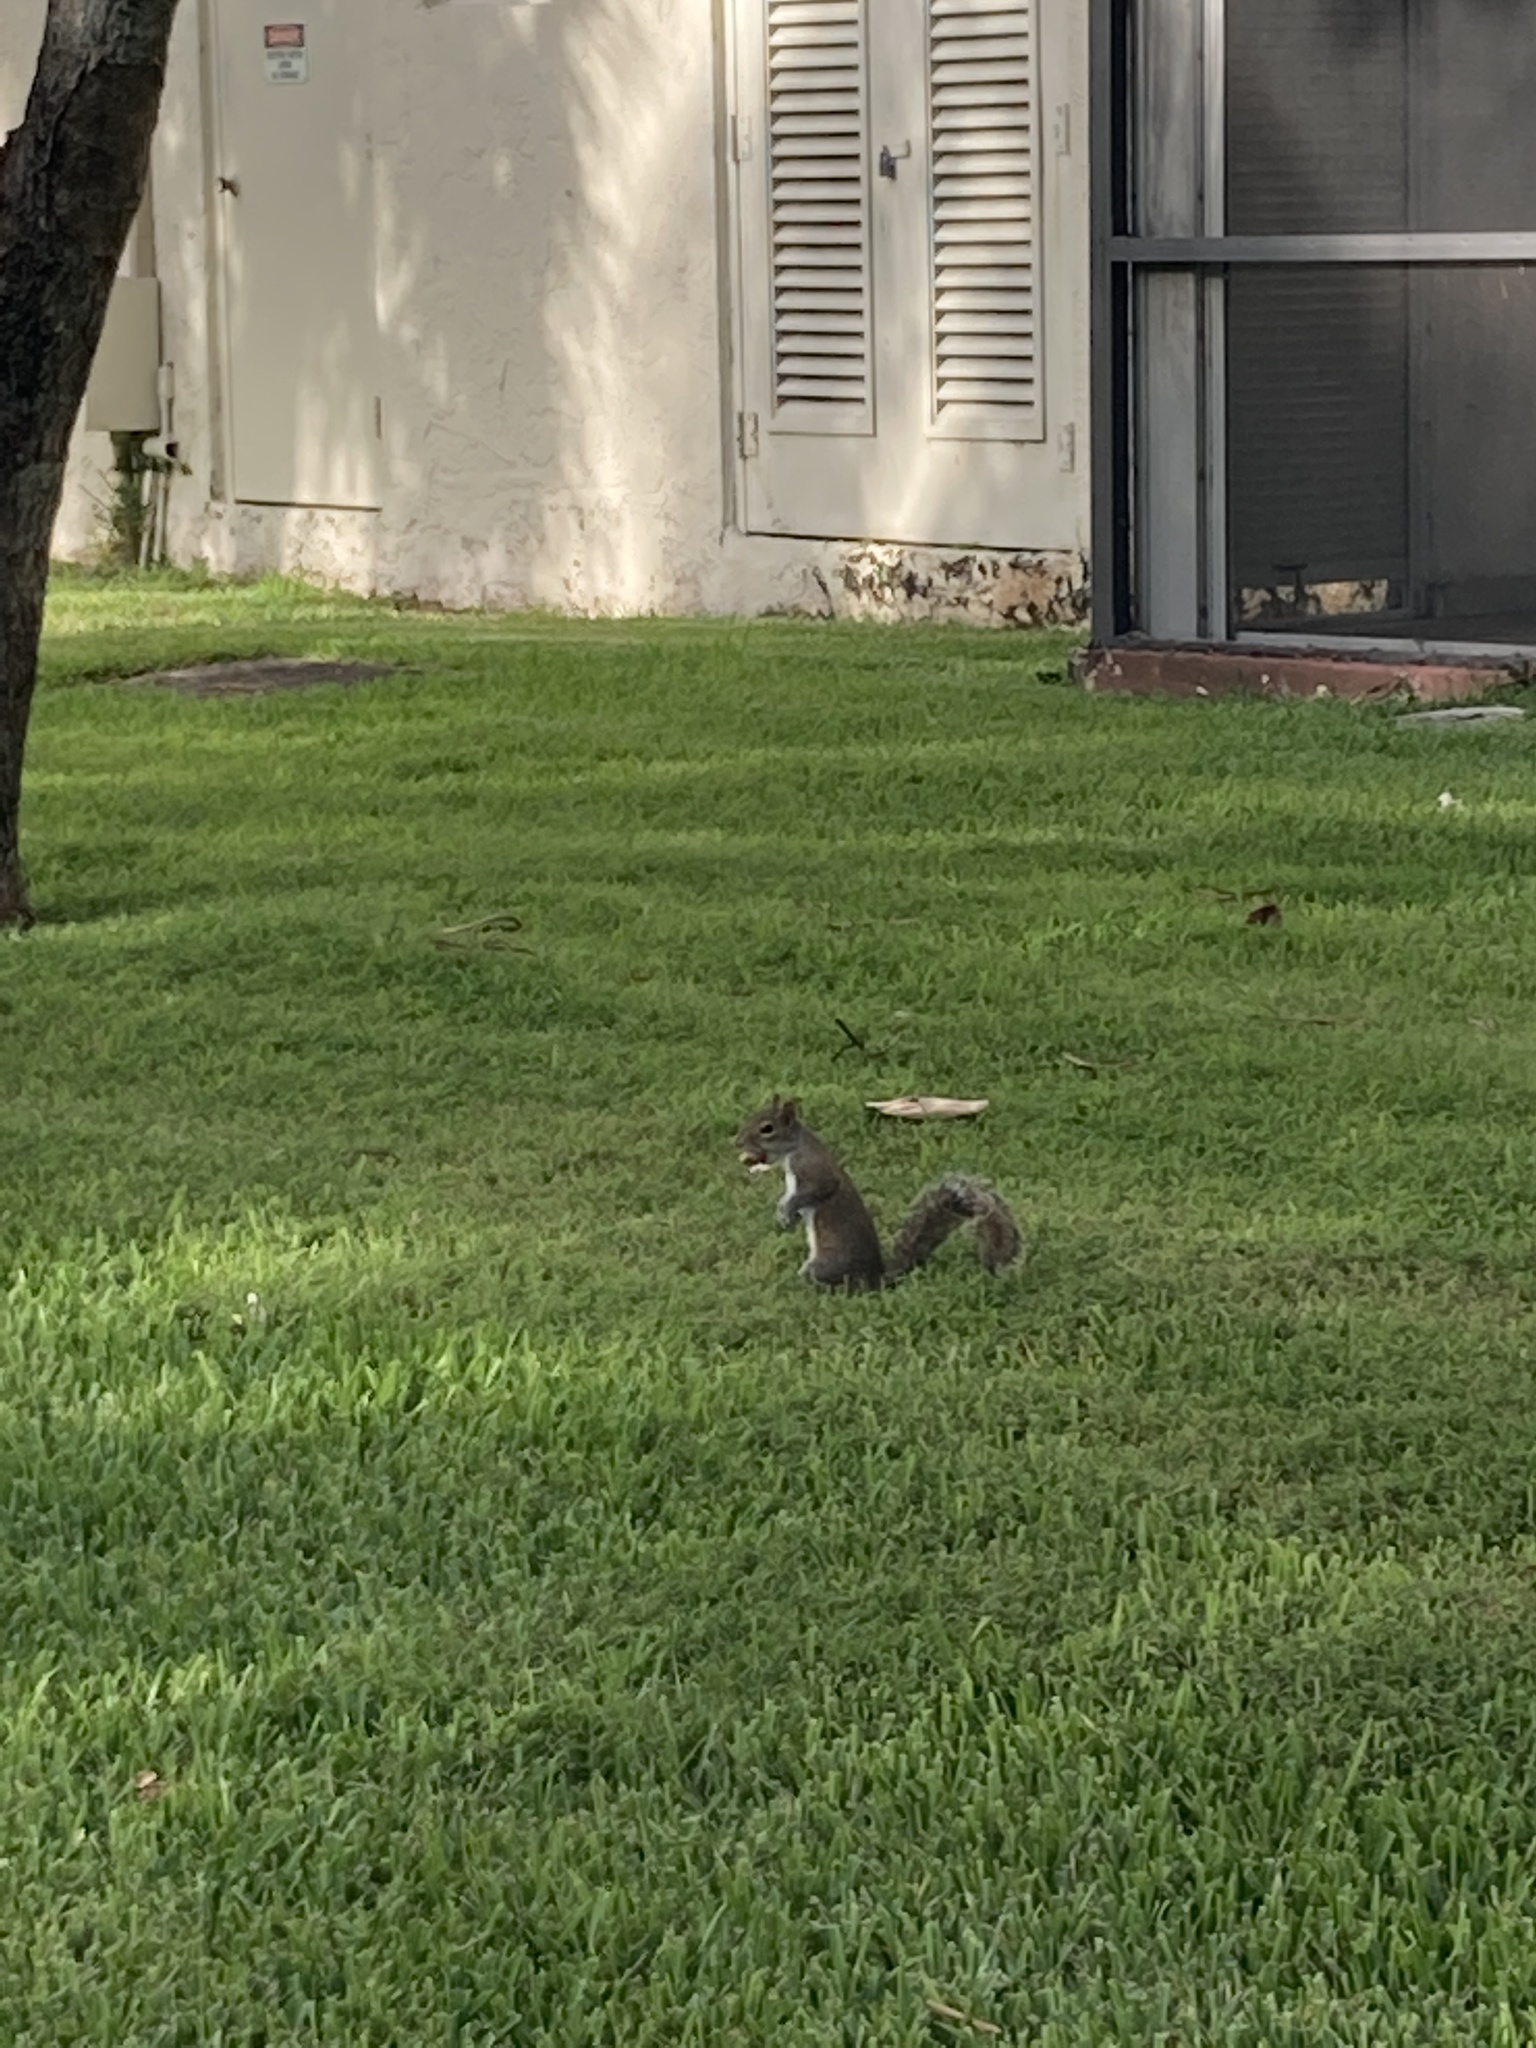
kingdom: Animalia
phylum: Chordata
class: Mammalia
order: Rodentia
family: Sciuridae
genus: Sciurus
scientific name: Sciurus carolinensis
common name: Eastern gray squirrel
